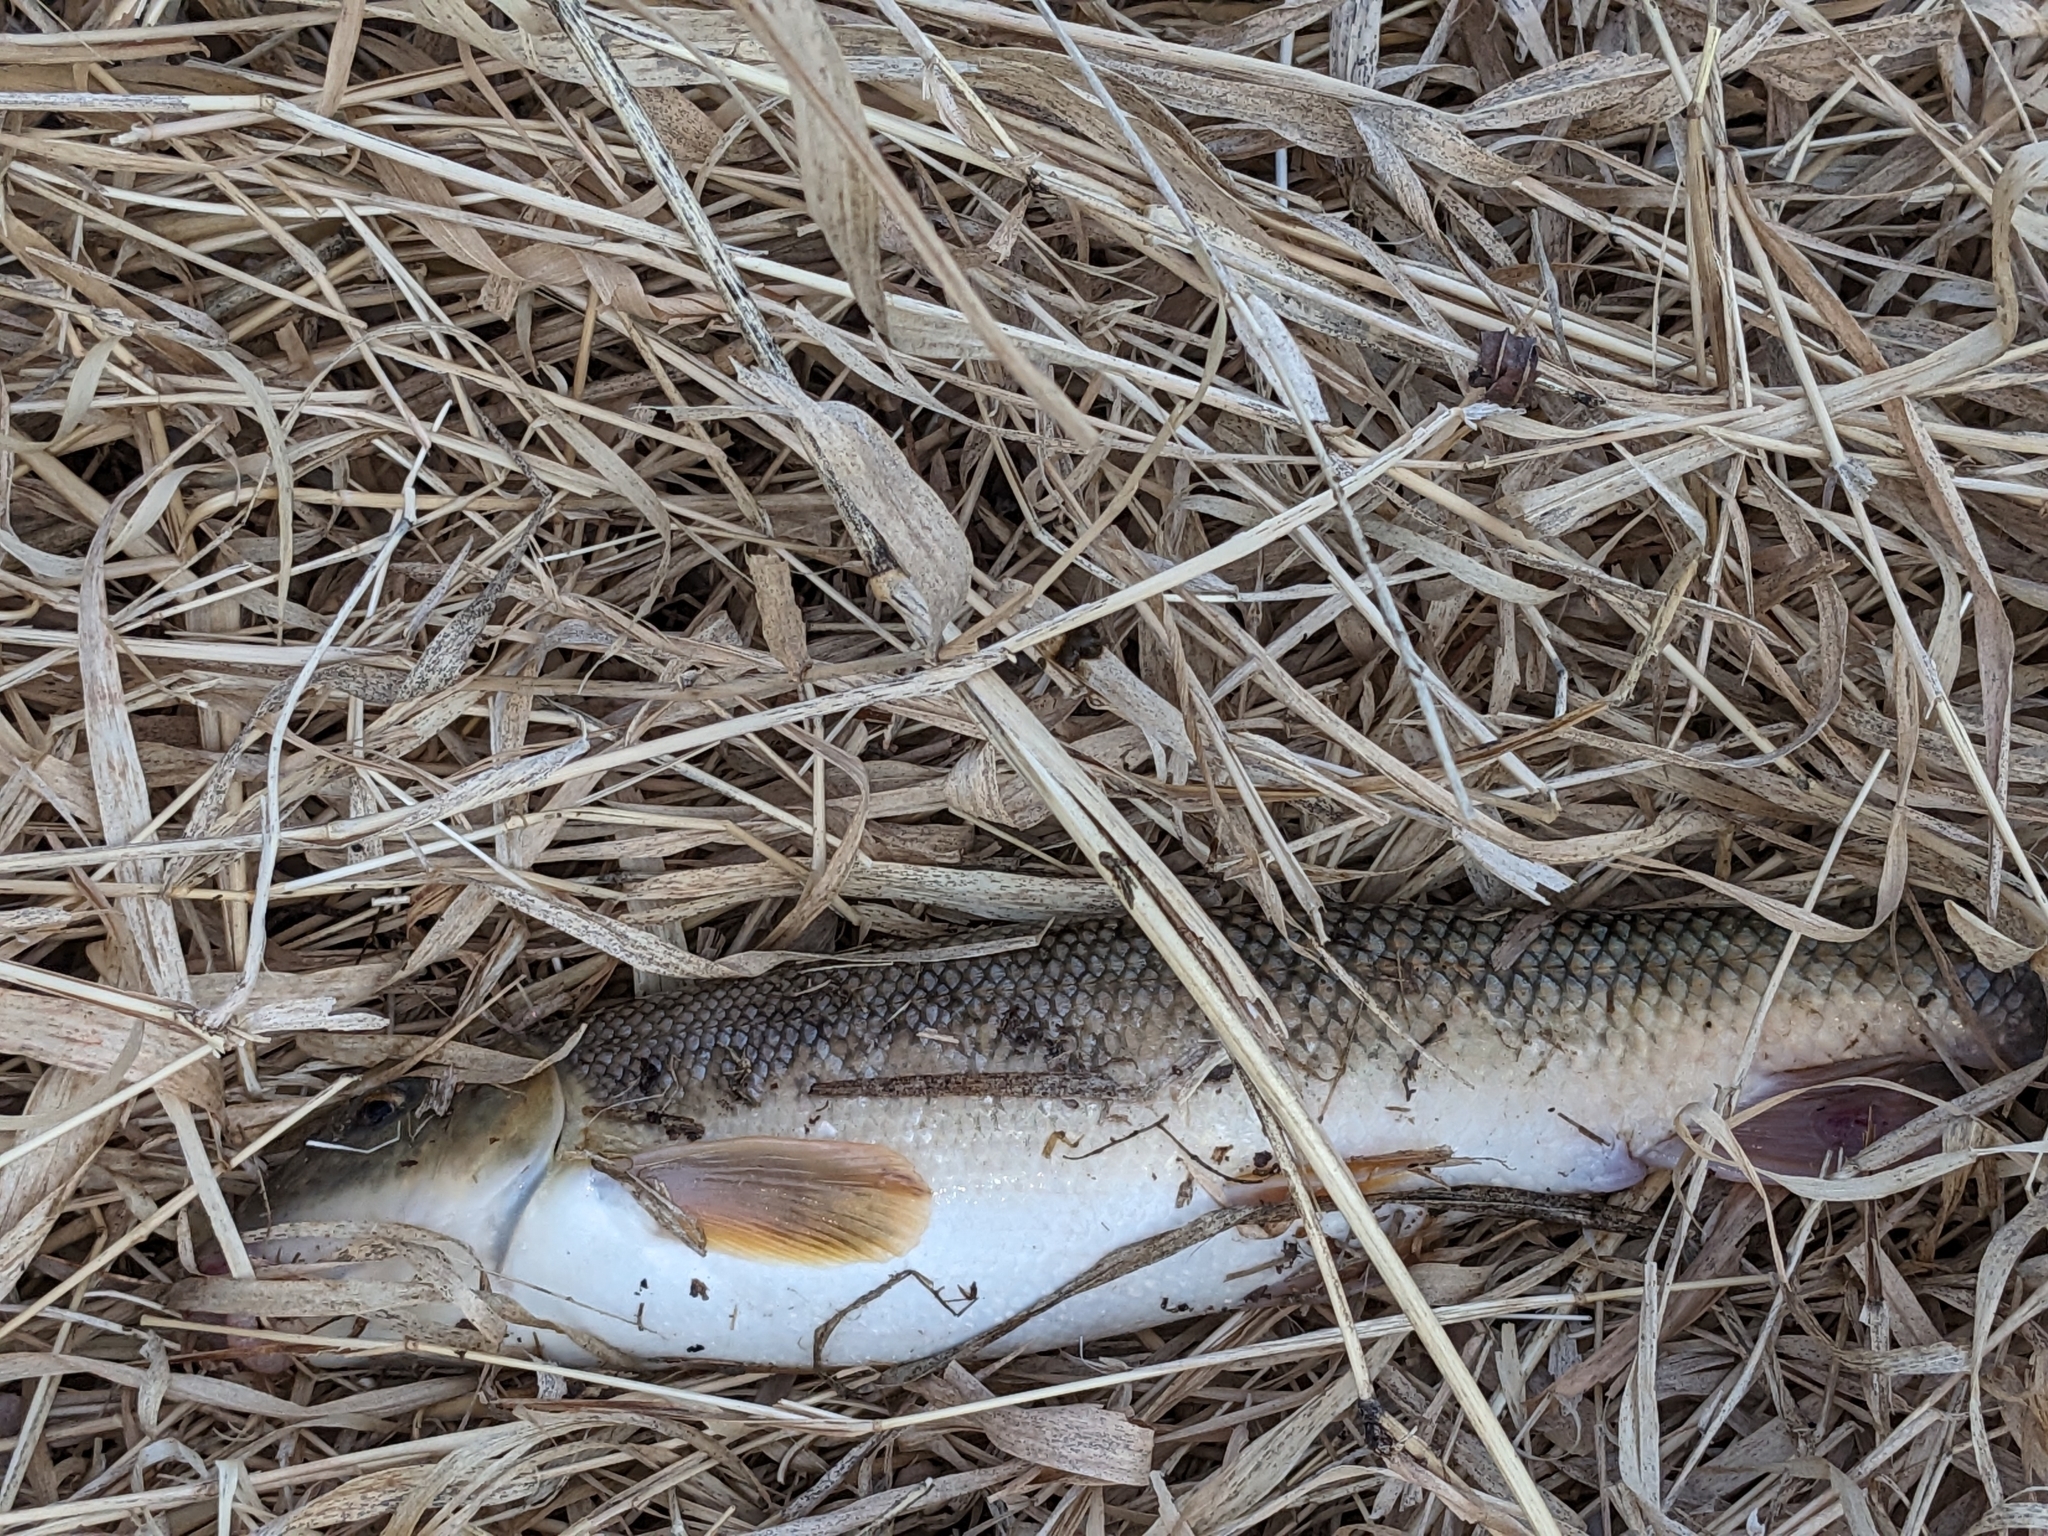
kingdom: Animalia
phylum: Chordata
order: Cypriniformes
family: Catostomidae
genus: Catostomus
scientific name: Catostomus commersonii
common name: White sucker
